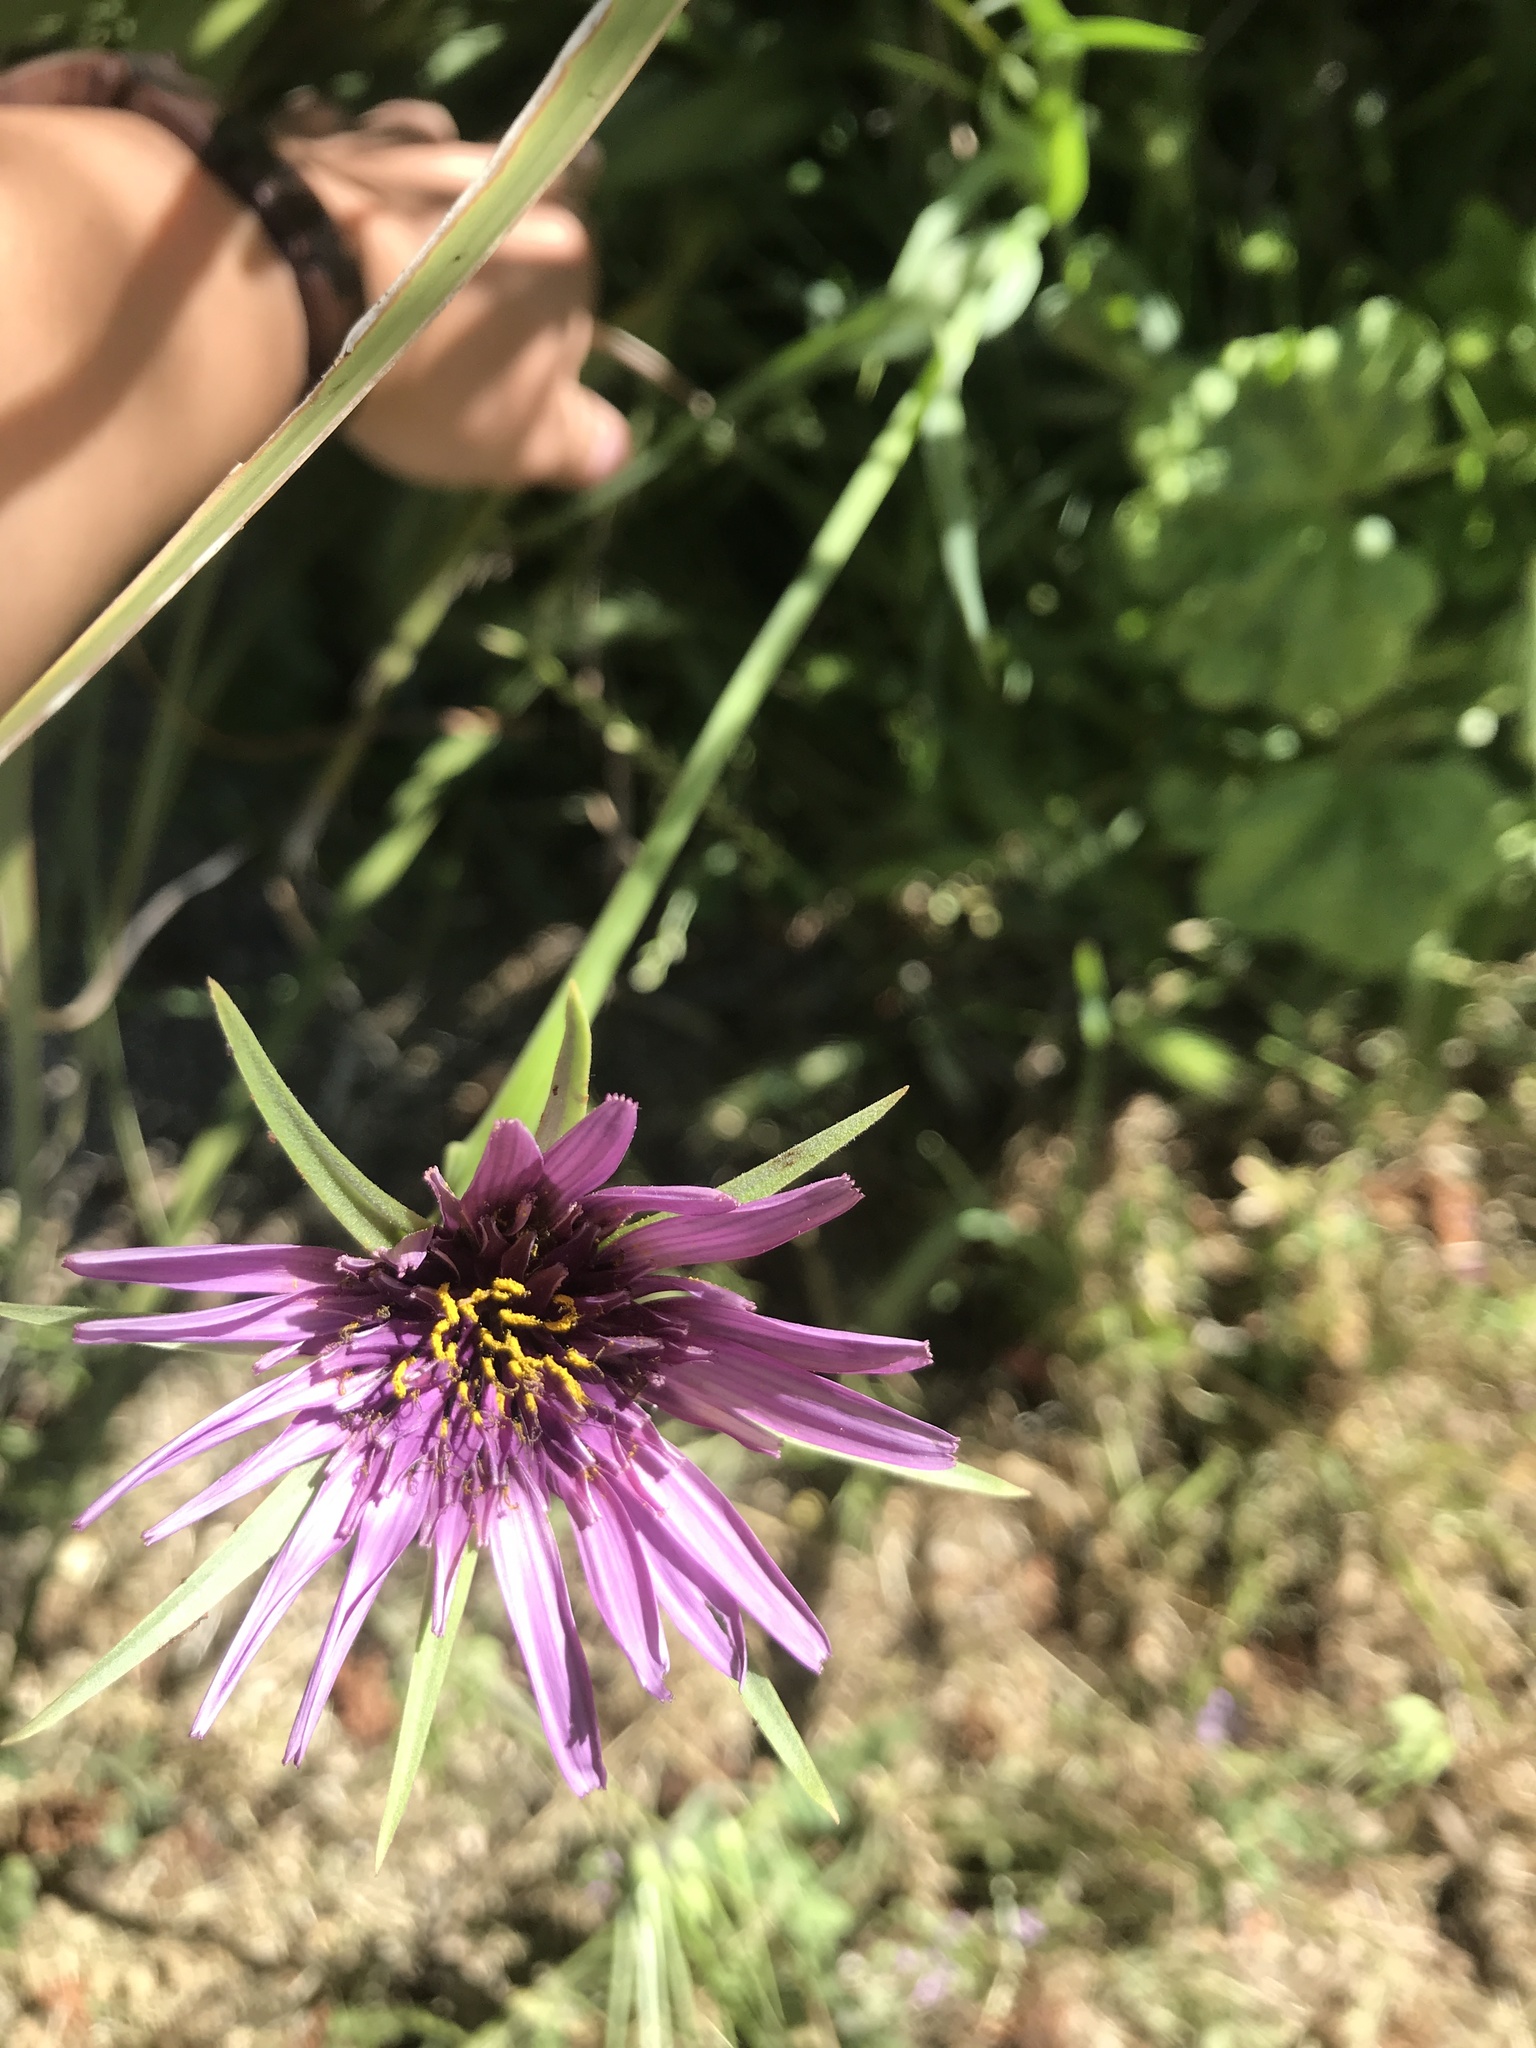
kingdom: Plantae
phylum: Tracheophyta
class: Magnoliopsida
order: Asterales
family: Asteraceae
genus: Tragopogon
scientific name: Tragopogon porrifolius
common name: Salsify
